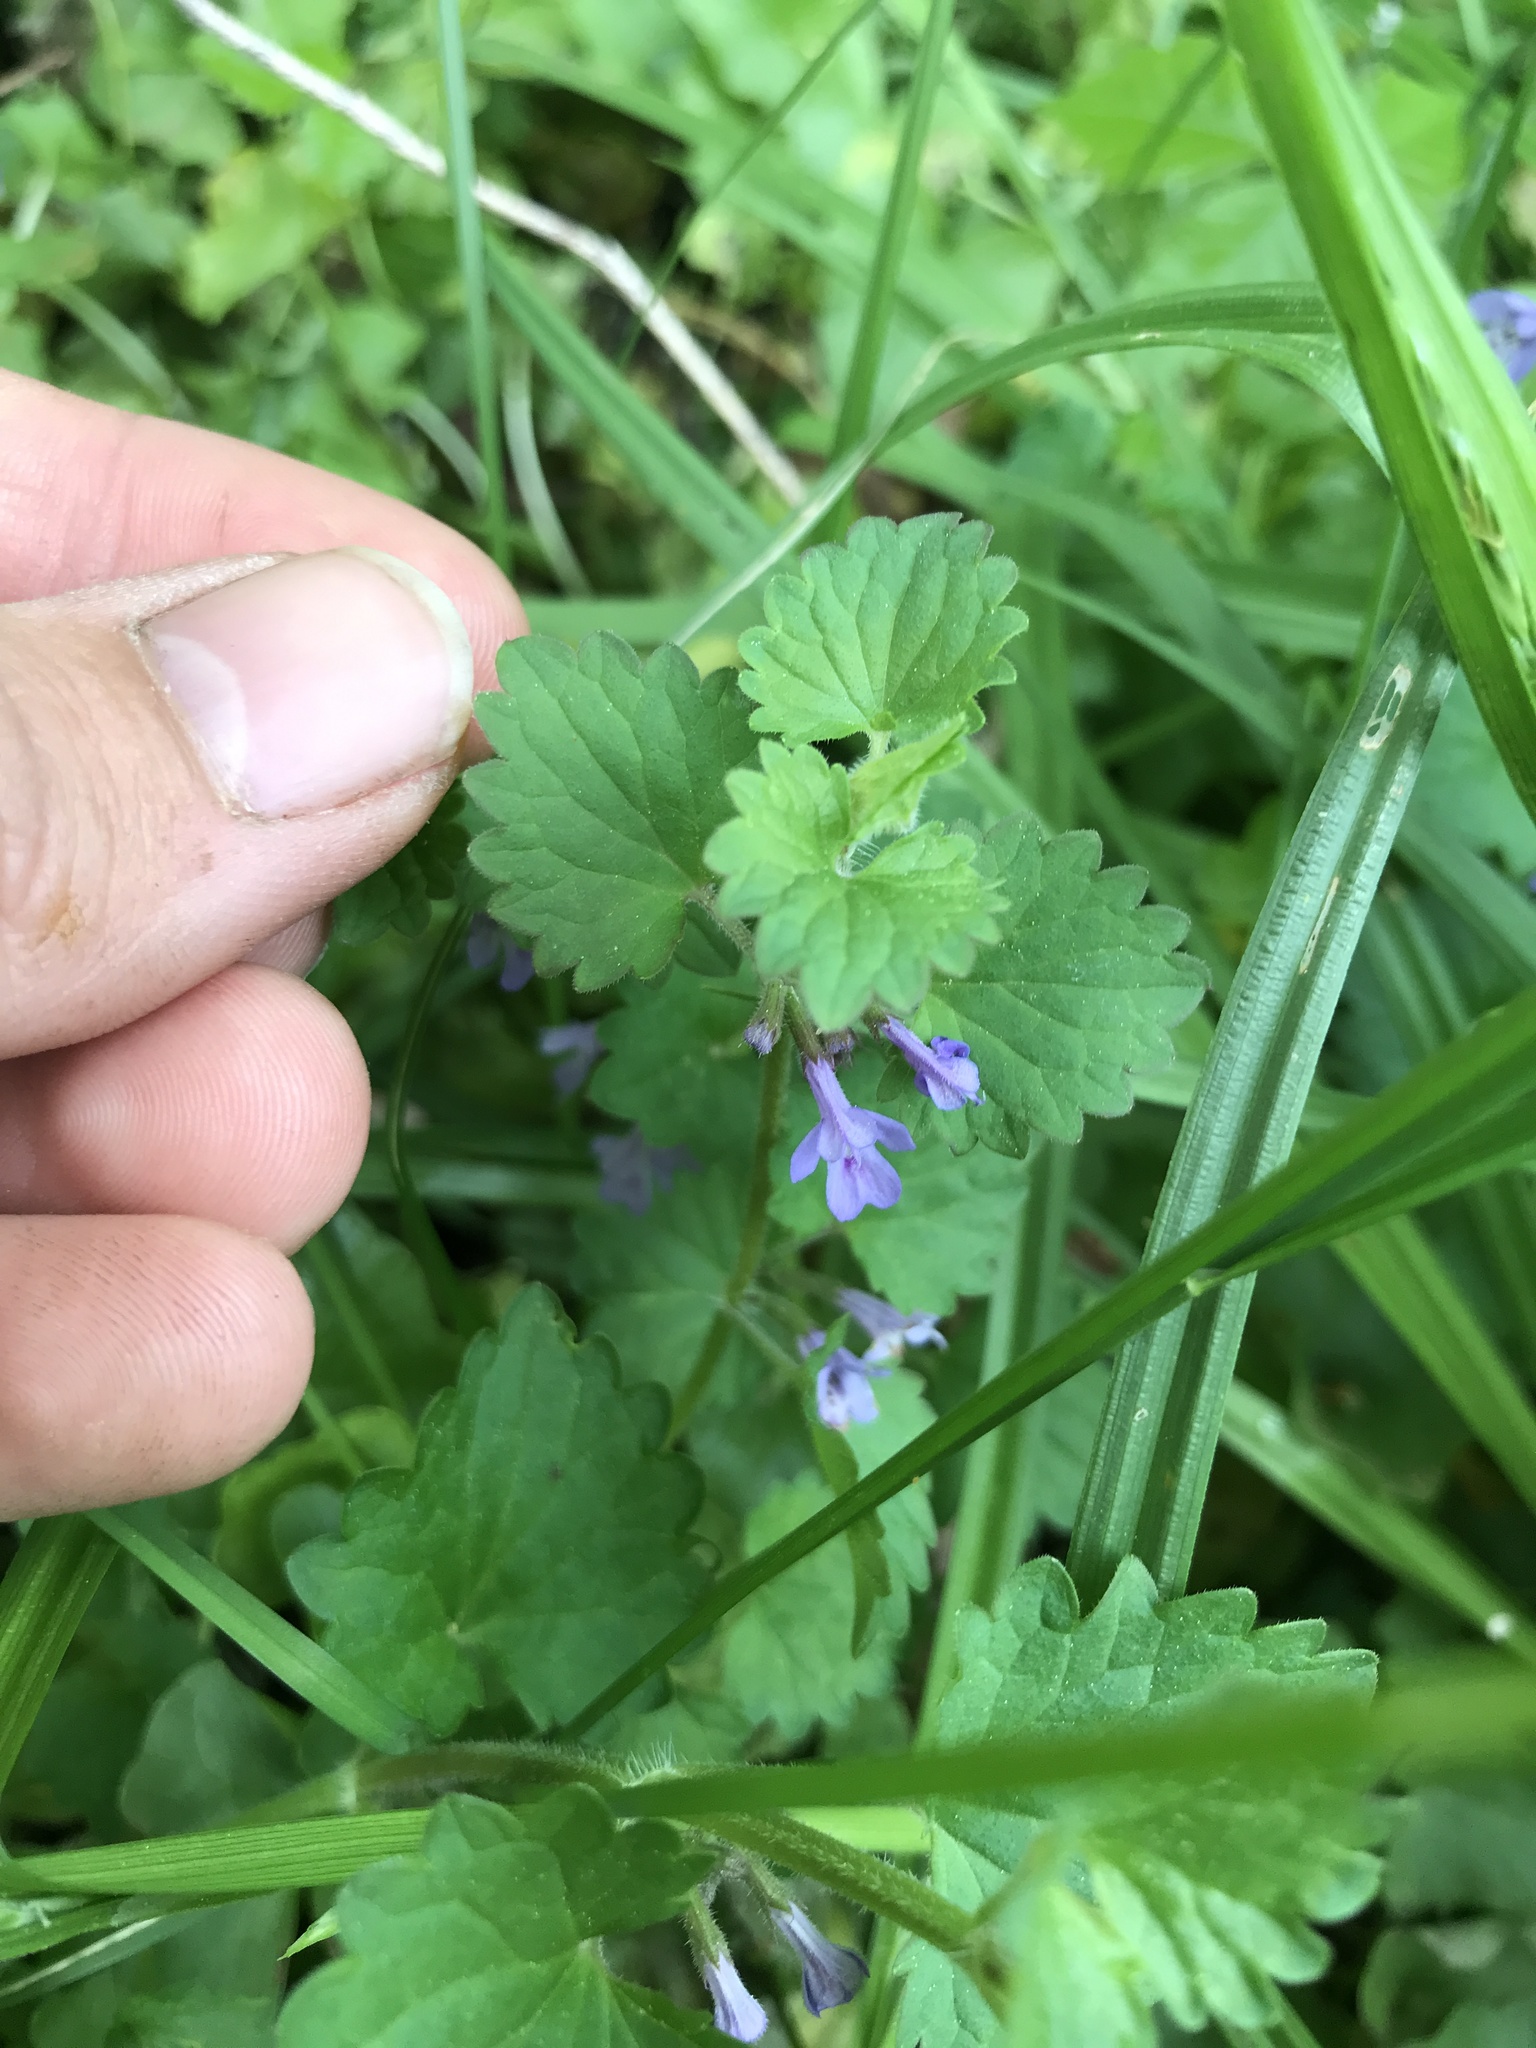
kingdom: Plantae
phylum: Tracheophyta
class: Magnoliopsida
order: Lamiales
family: Lamiaceae
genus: Glechoma
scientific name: Glechoma hederacea
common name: Ground ivy
